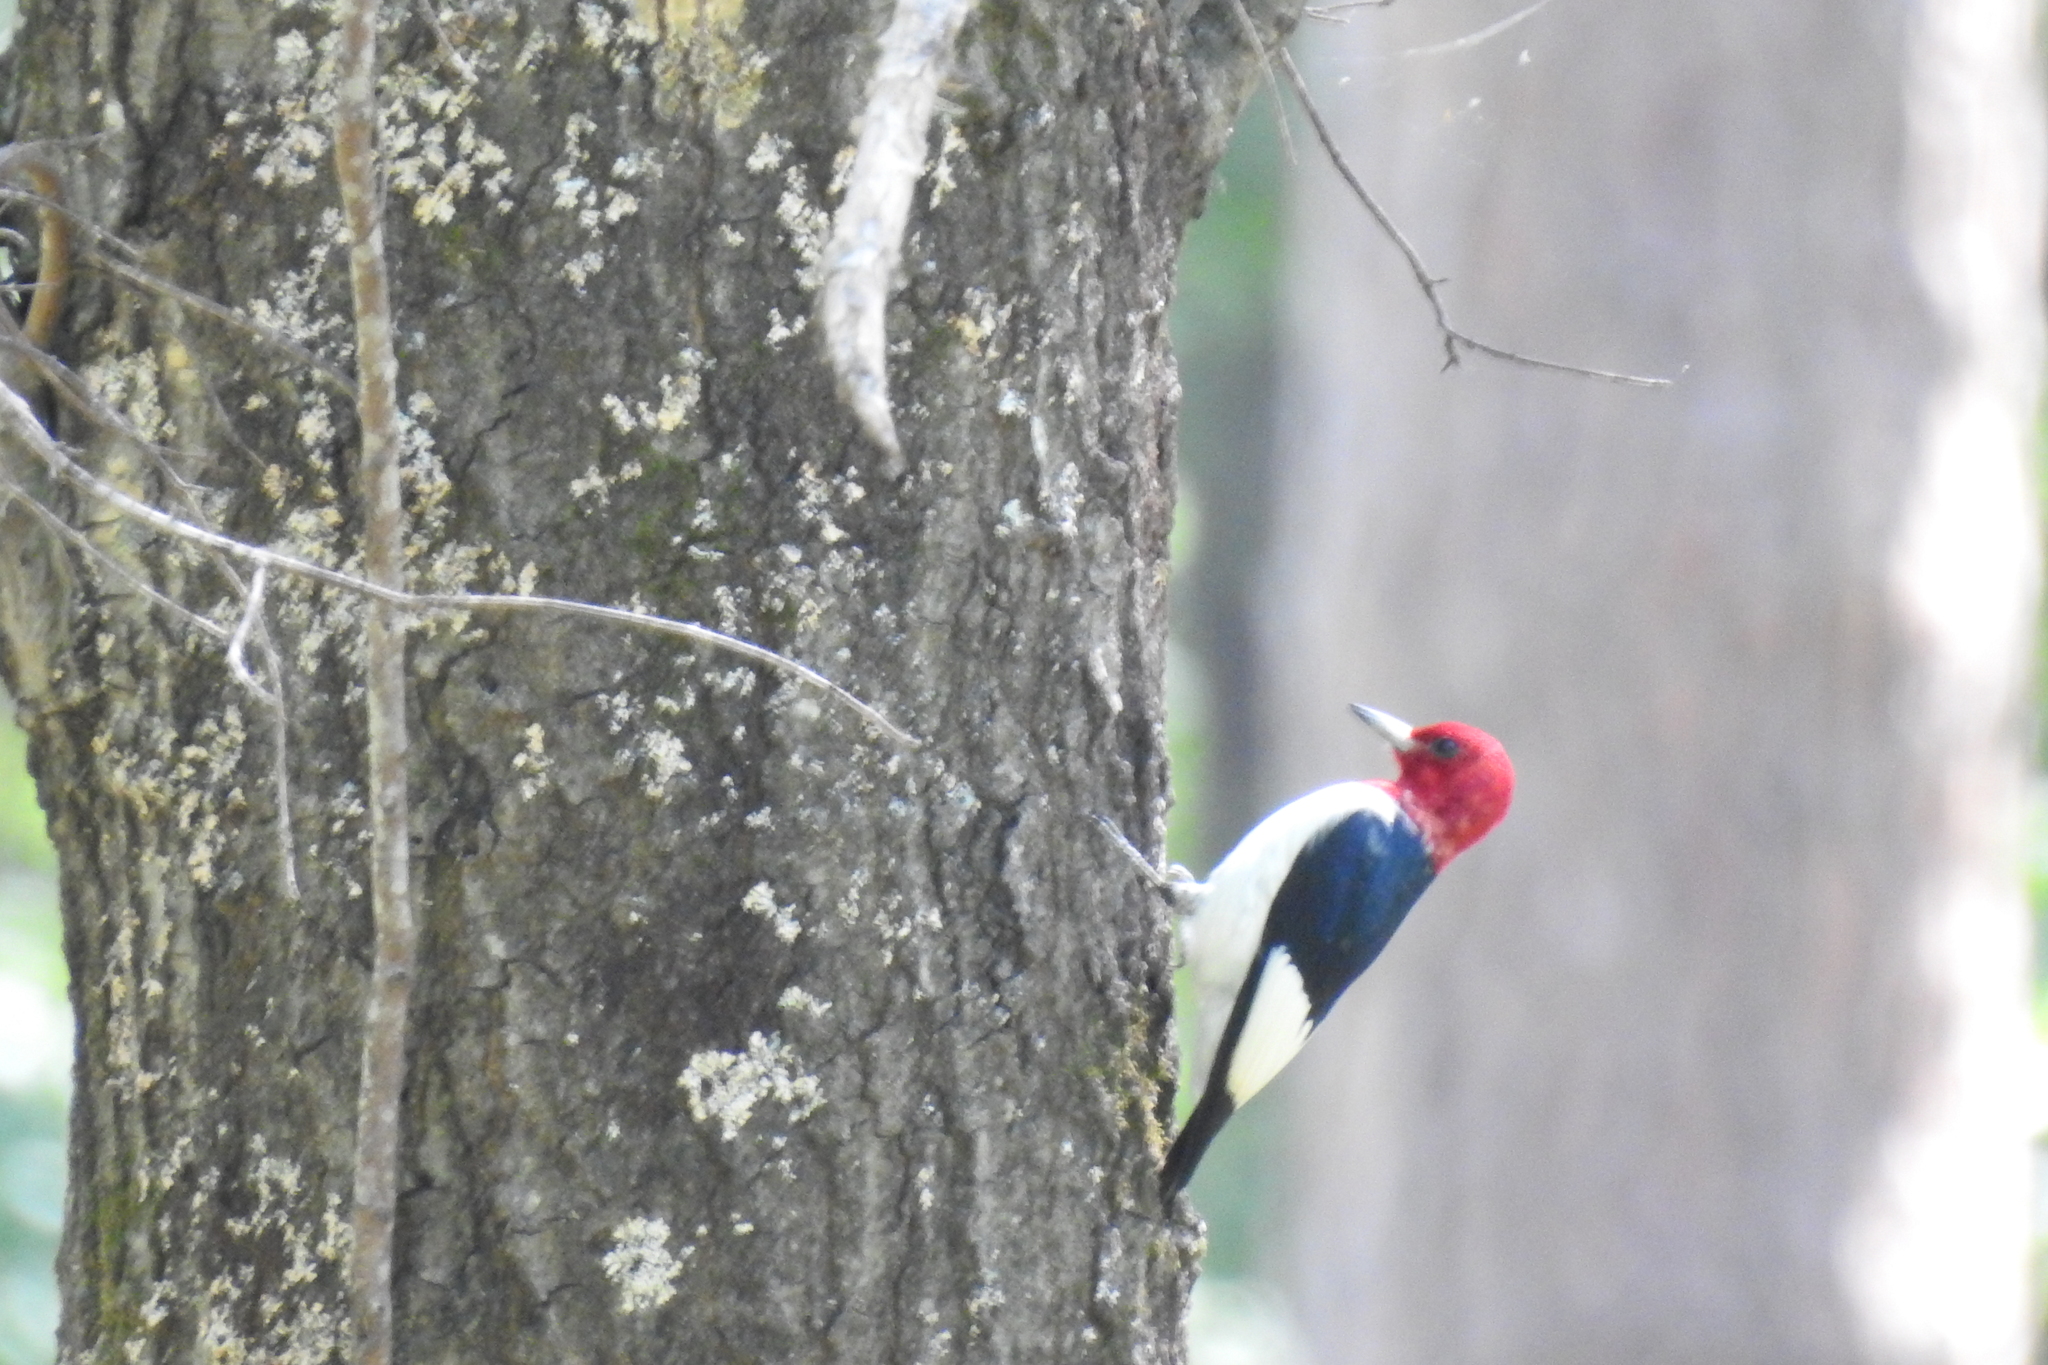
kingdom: Animalia
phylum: Chordata
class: Aves
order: Piciformes
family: Picidae
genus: Melanerpes
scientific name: Melanerpes erythrocephalus
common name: Red-headed woodpecker
